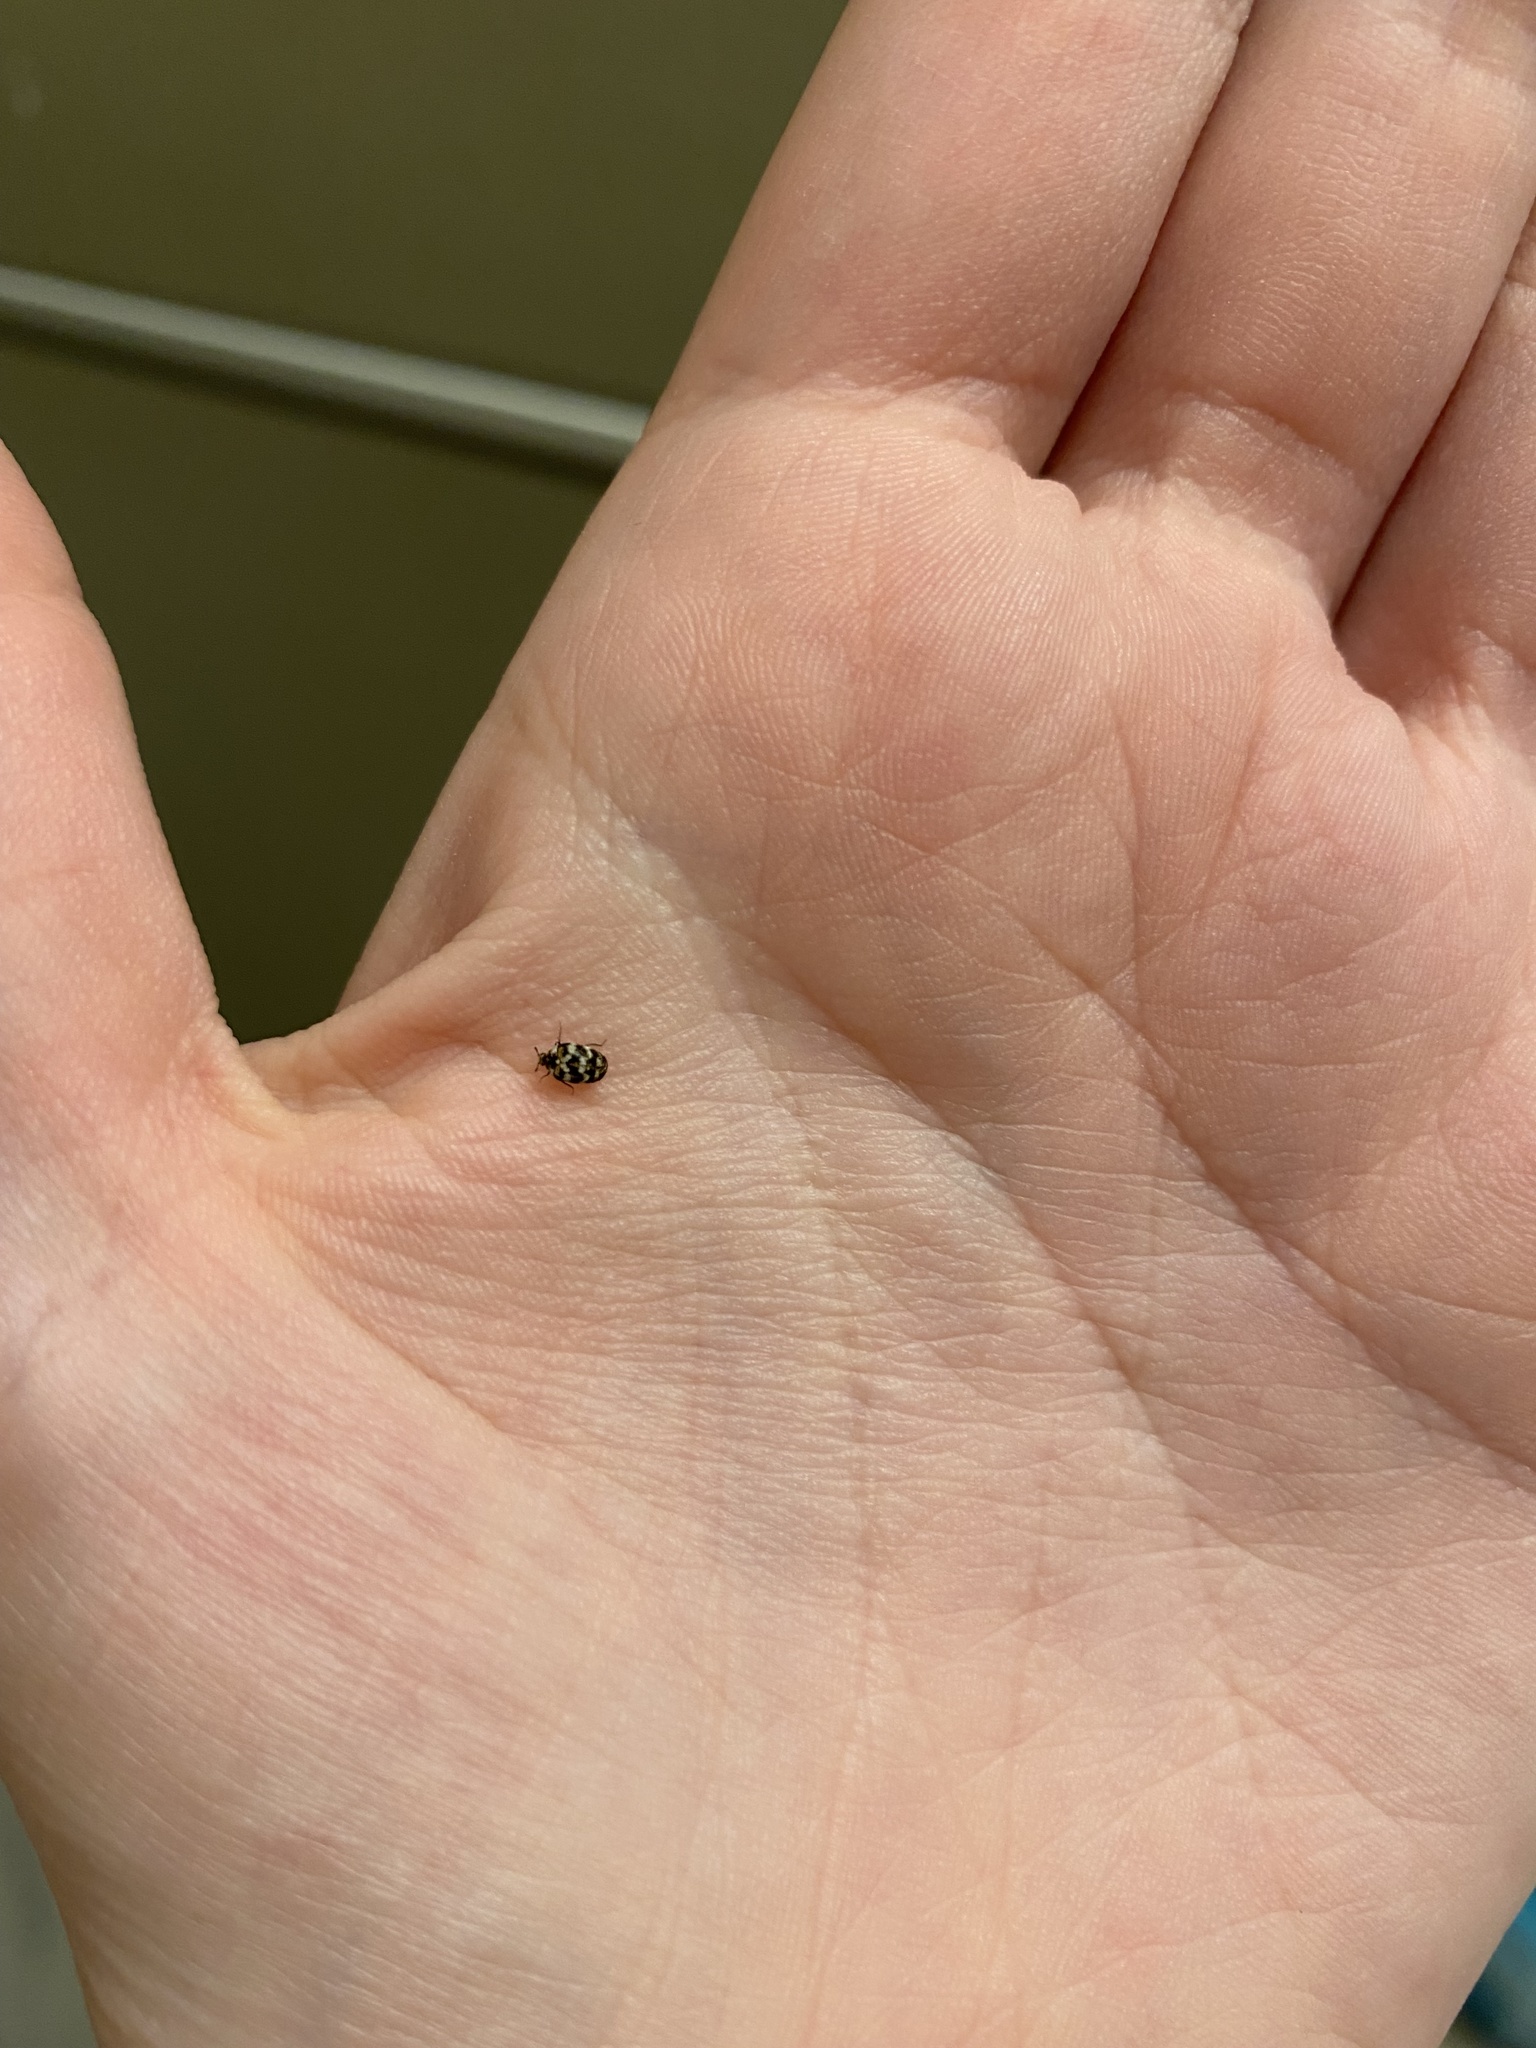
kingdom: Animalia
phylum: Arthropoda
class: Insecta
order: Coleoptera
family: Dermestidae
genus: Anthrenus
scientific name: Anthrenus verbasci
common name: Varied carpet beetle
